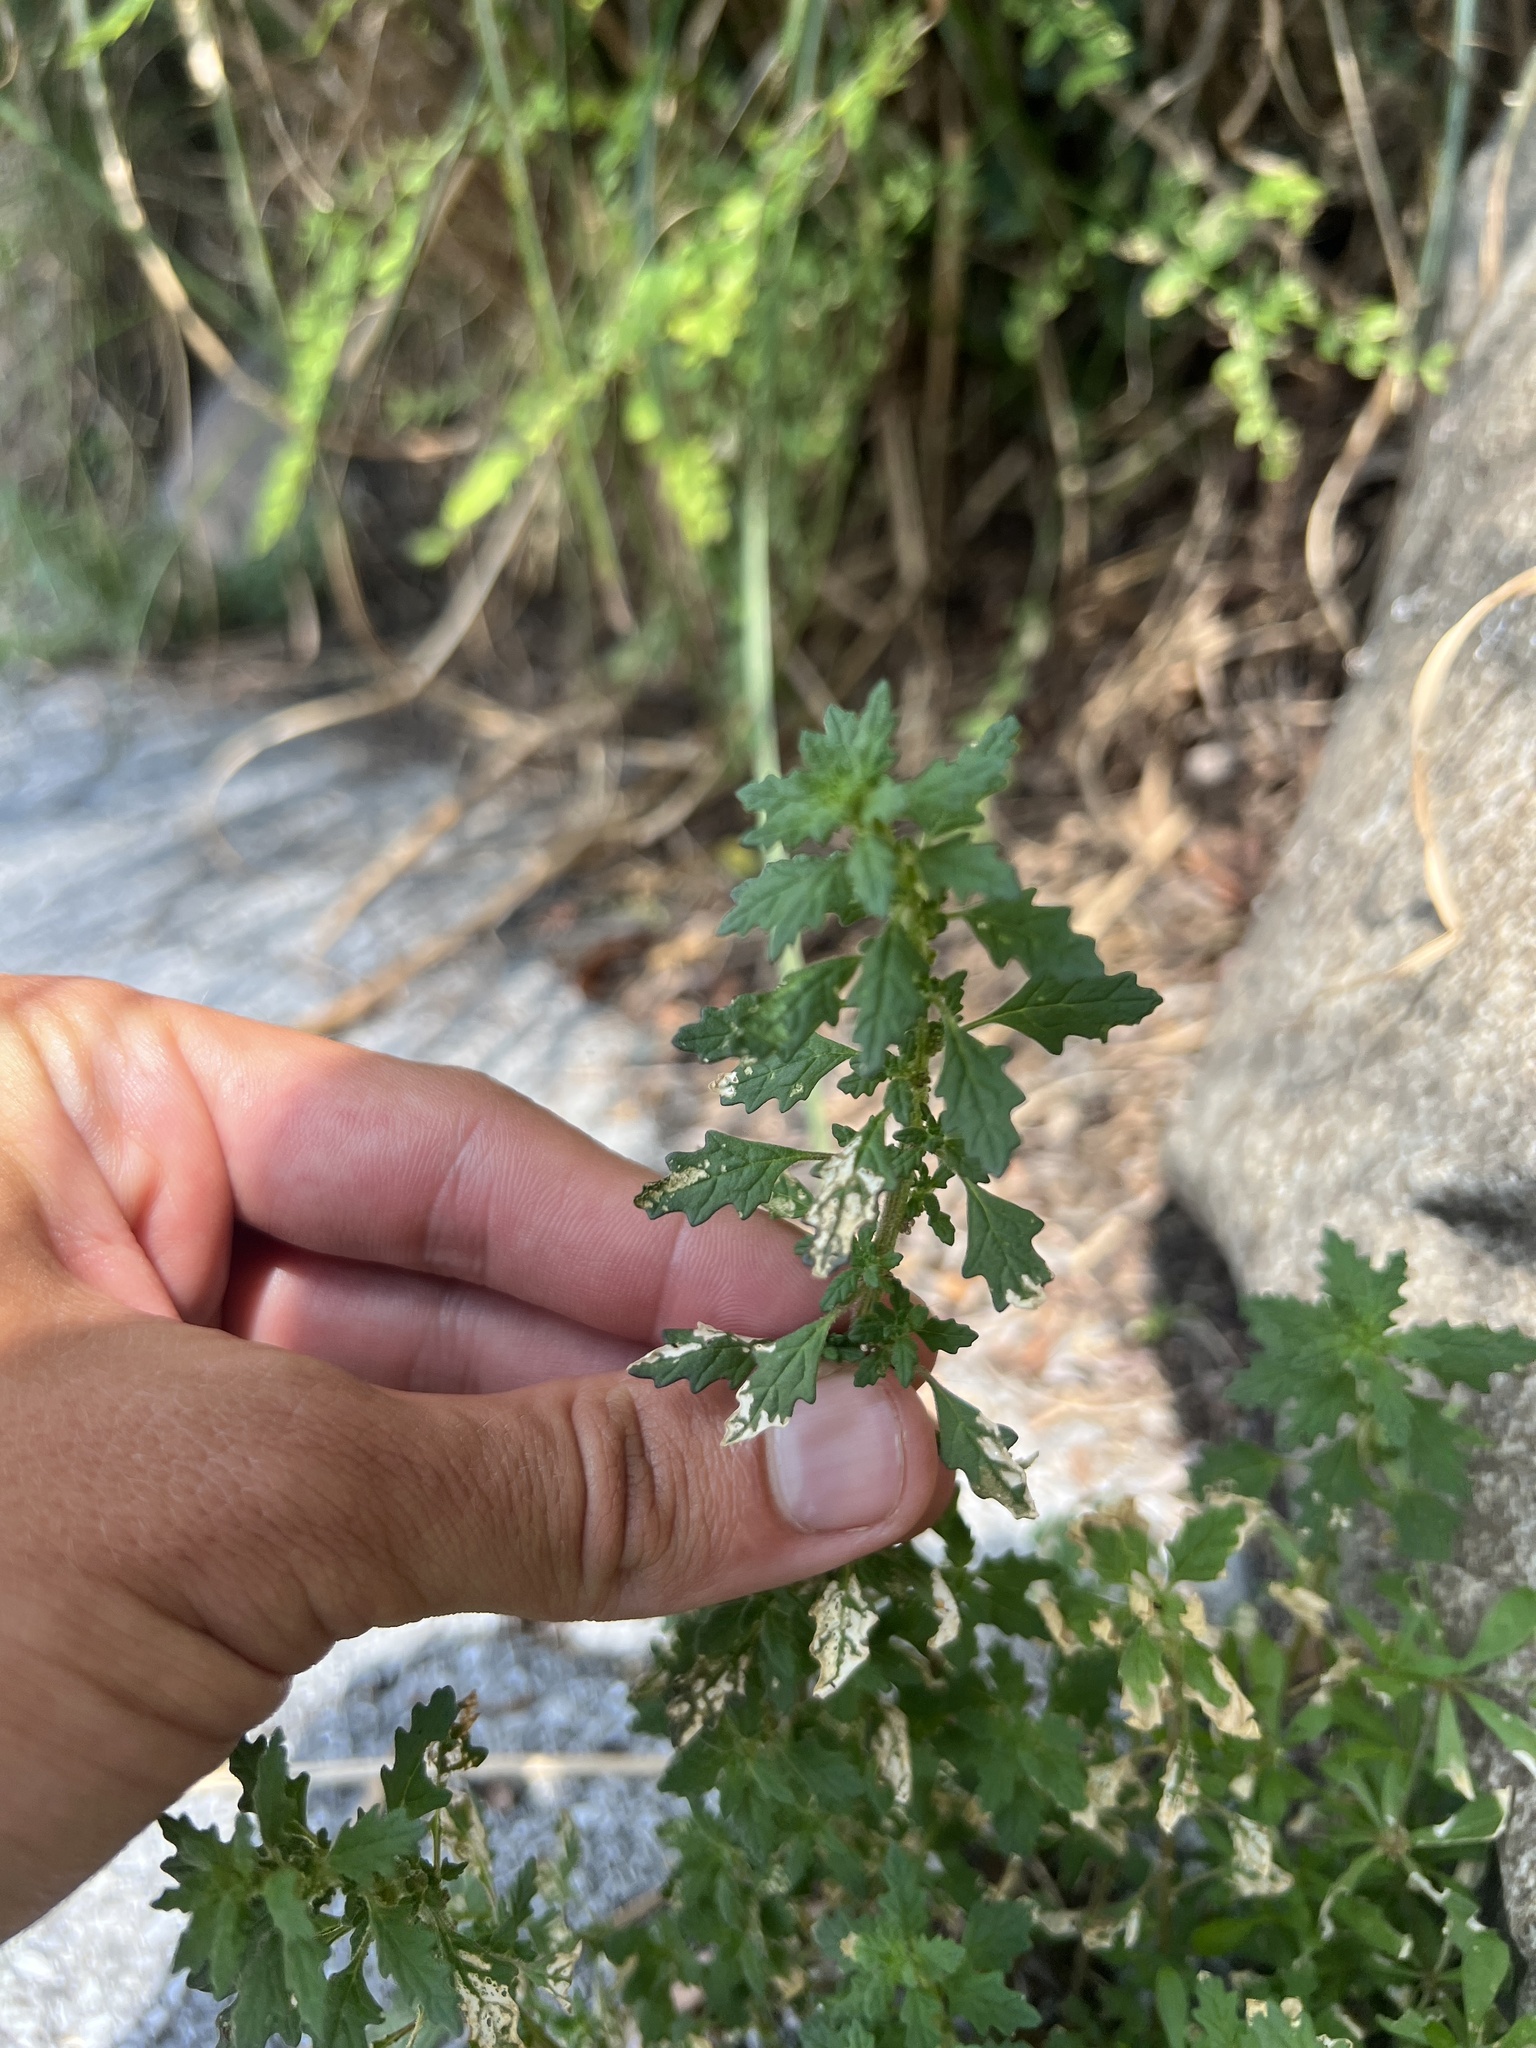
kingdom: Plantae
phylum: Tracheophyta
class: Magnoliopsida
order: Caryophyllales
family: Amaranthaceae
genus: Dysphania
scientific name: Dysphania pumilio
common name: Clammy goosefoot
